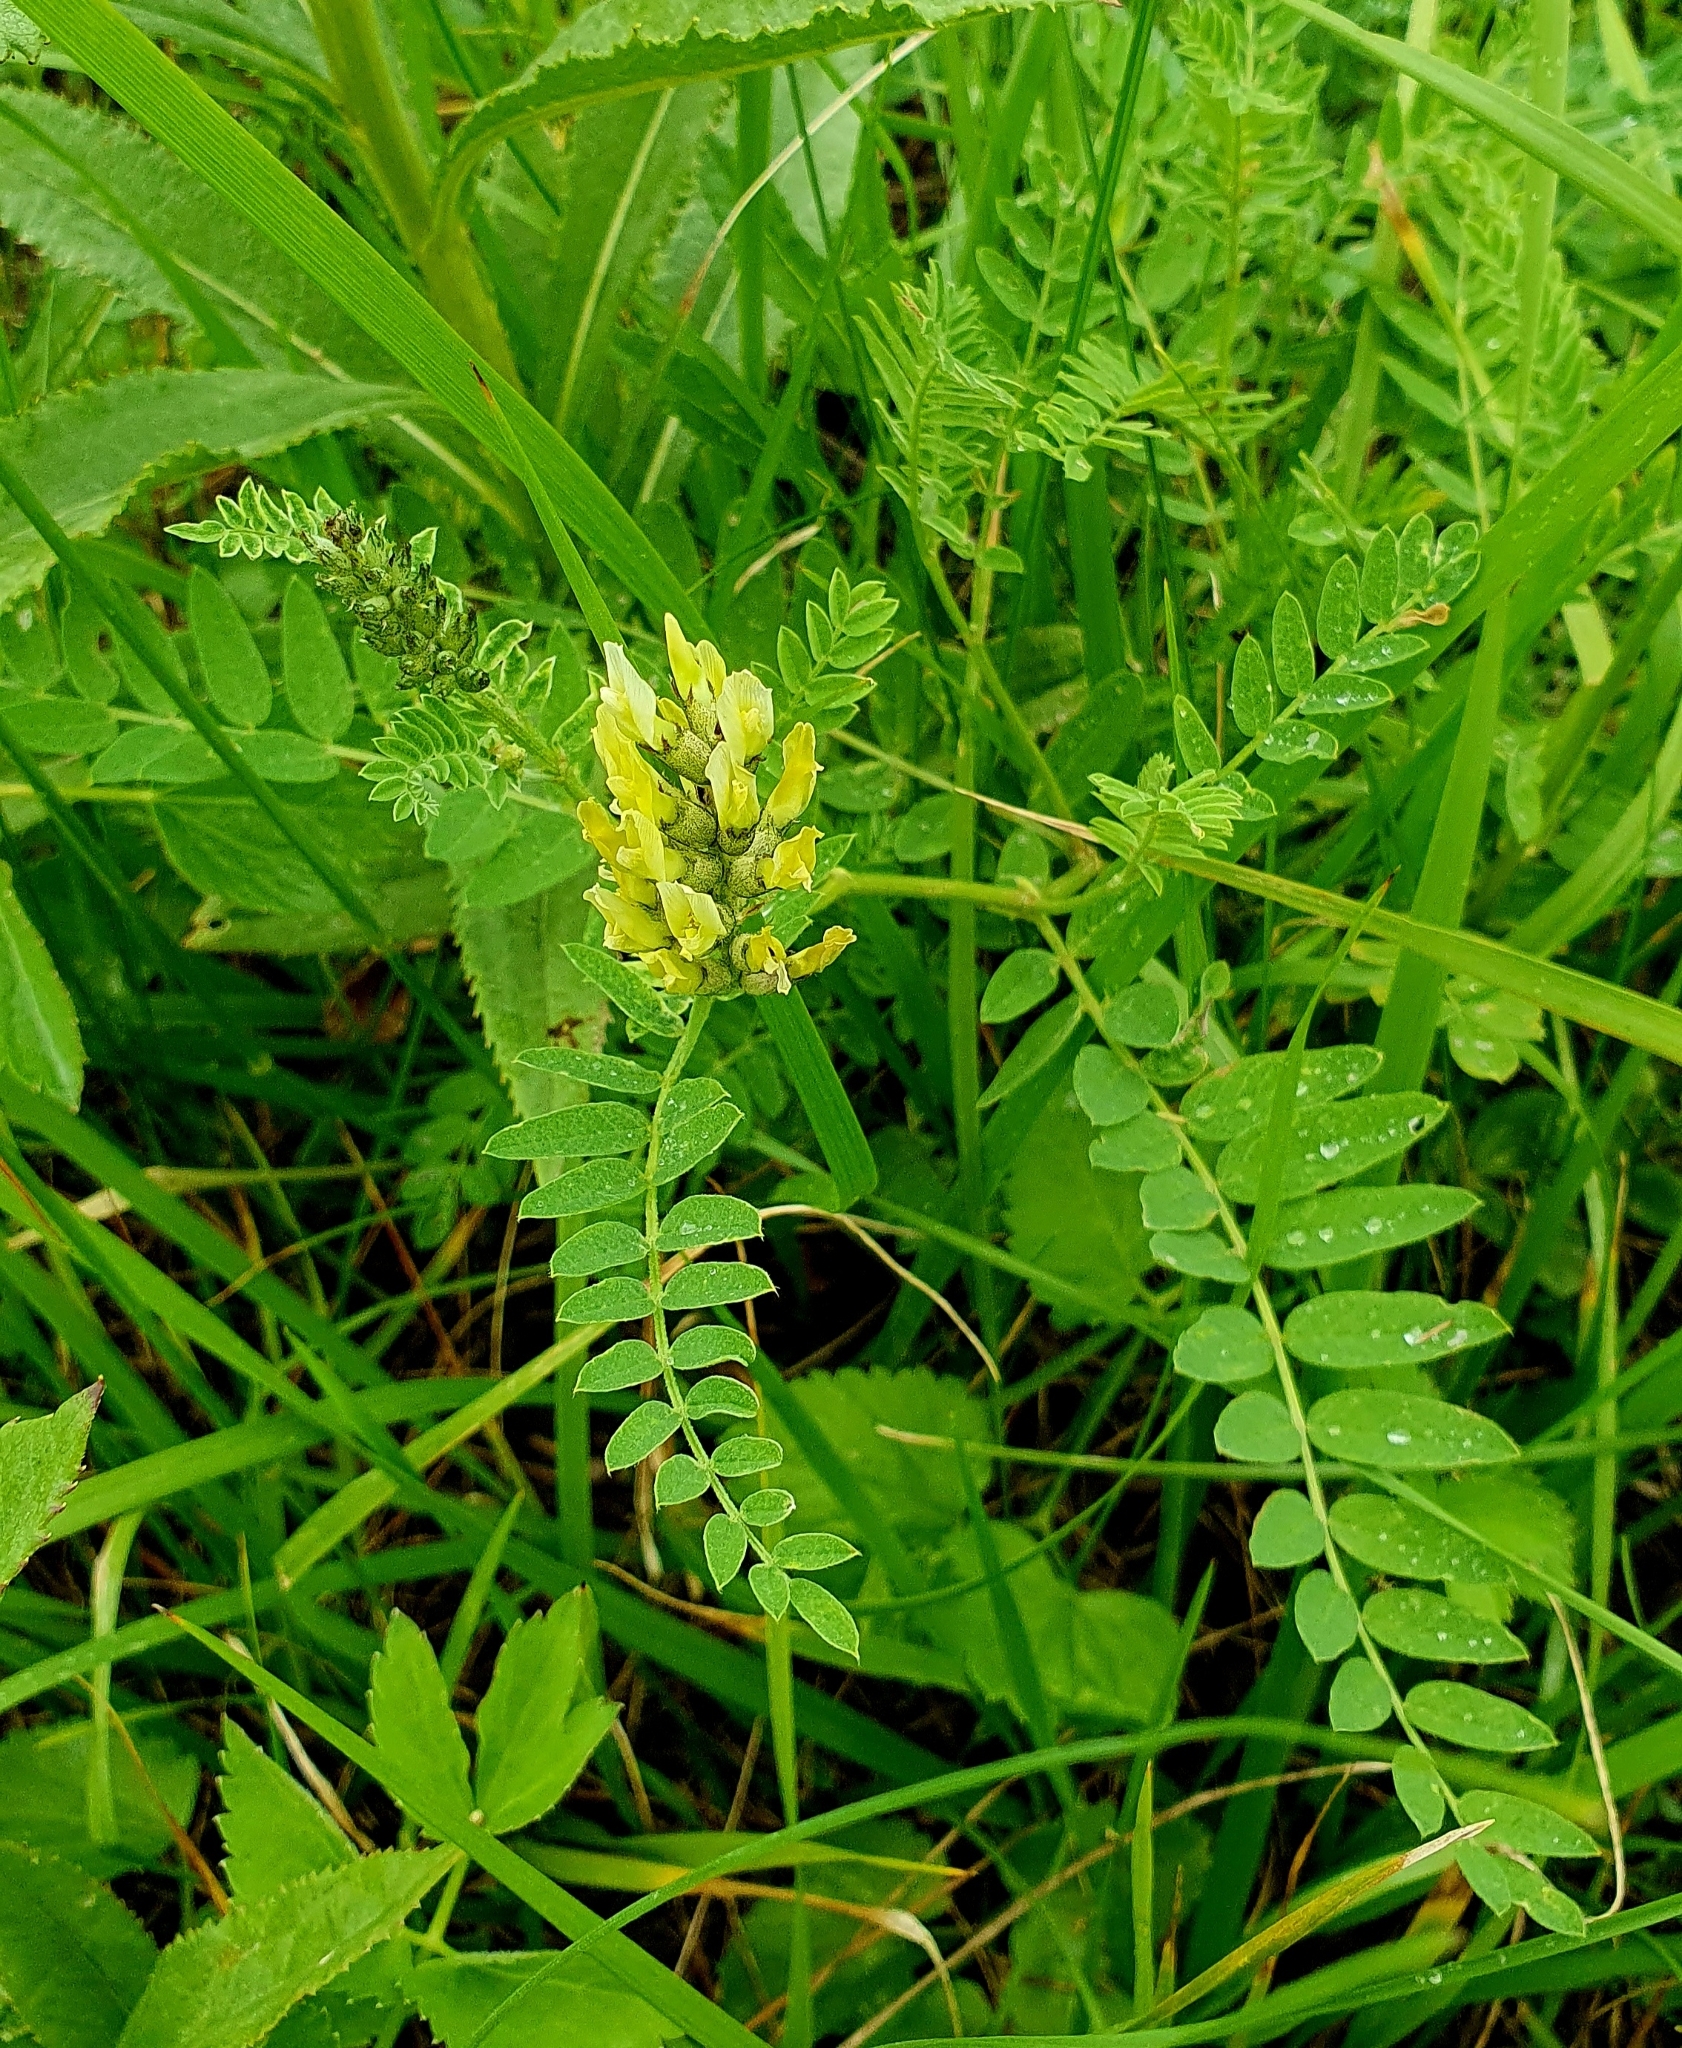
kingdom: Plantae
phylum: Tracheophyta
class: Magnoliopsida
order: Fabales
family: Fabaceae
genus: Astragalus
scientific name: Astragalus cicer
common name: Chick-pea milk-vetch
